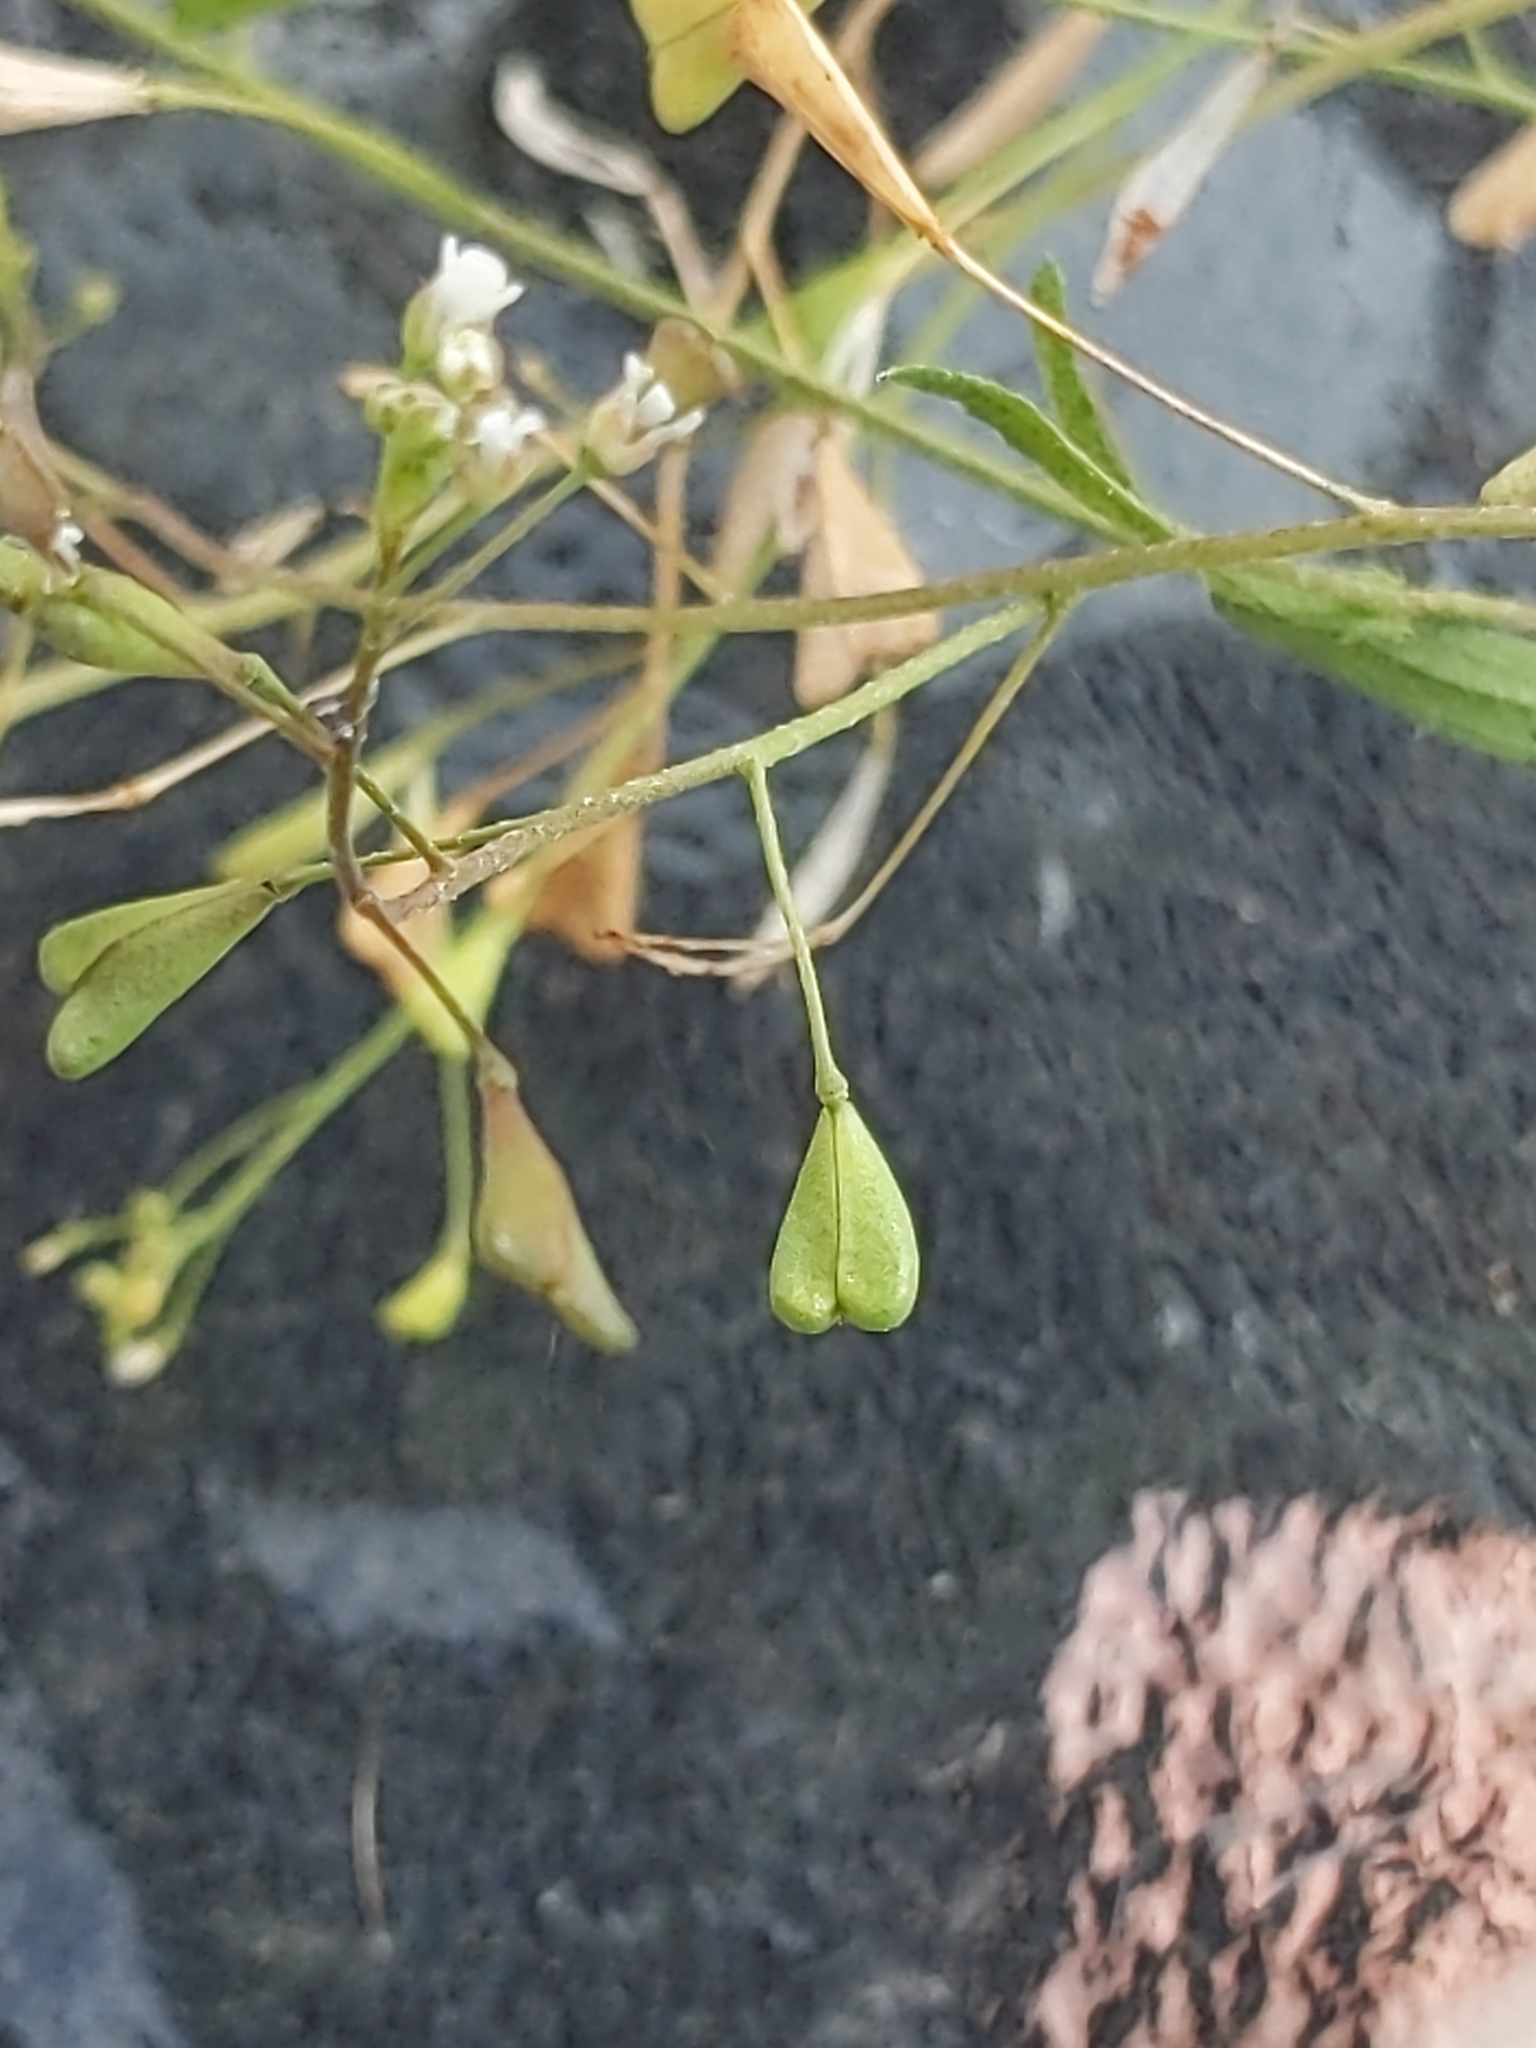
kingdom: Plantae
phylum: Tracheophyta
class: Magnoliopsida
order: Brassicales
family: Brassicaceae
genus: Capsella
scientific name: Capsella bursa-pastoris
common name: Shepherd's purse
